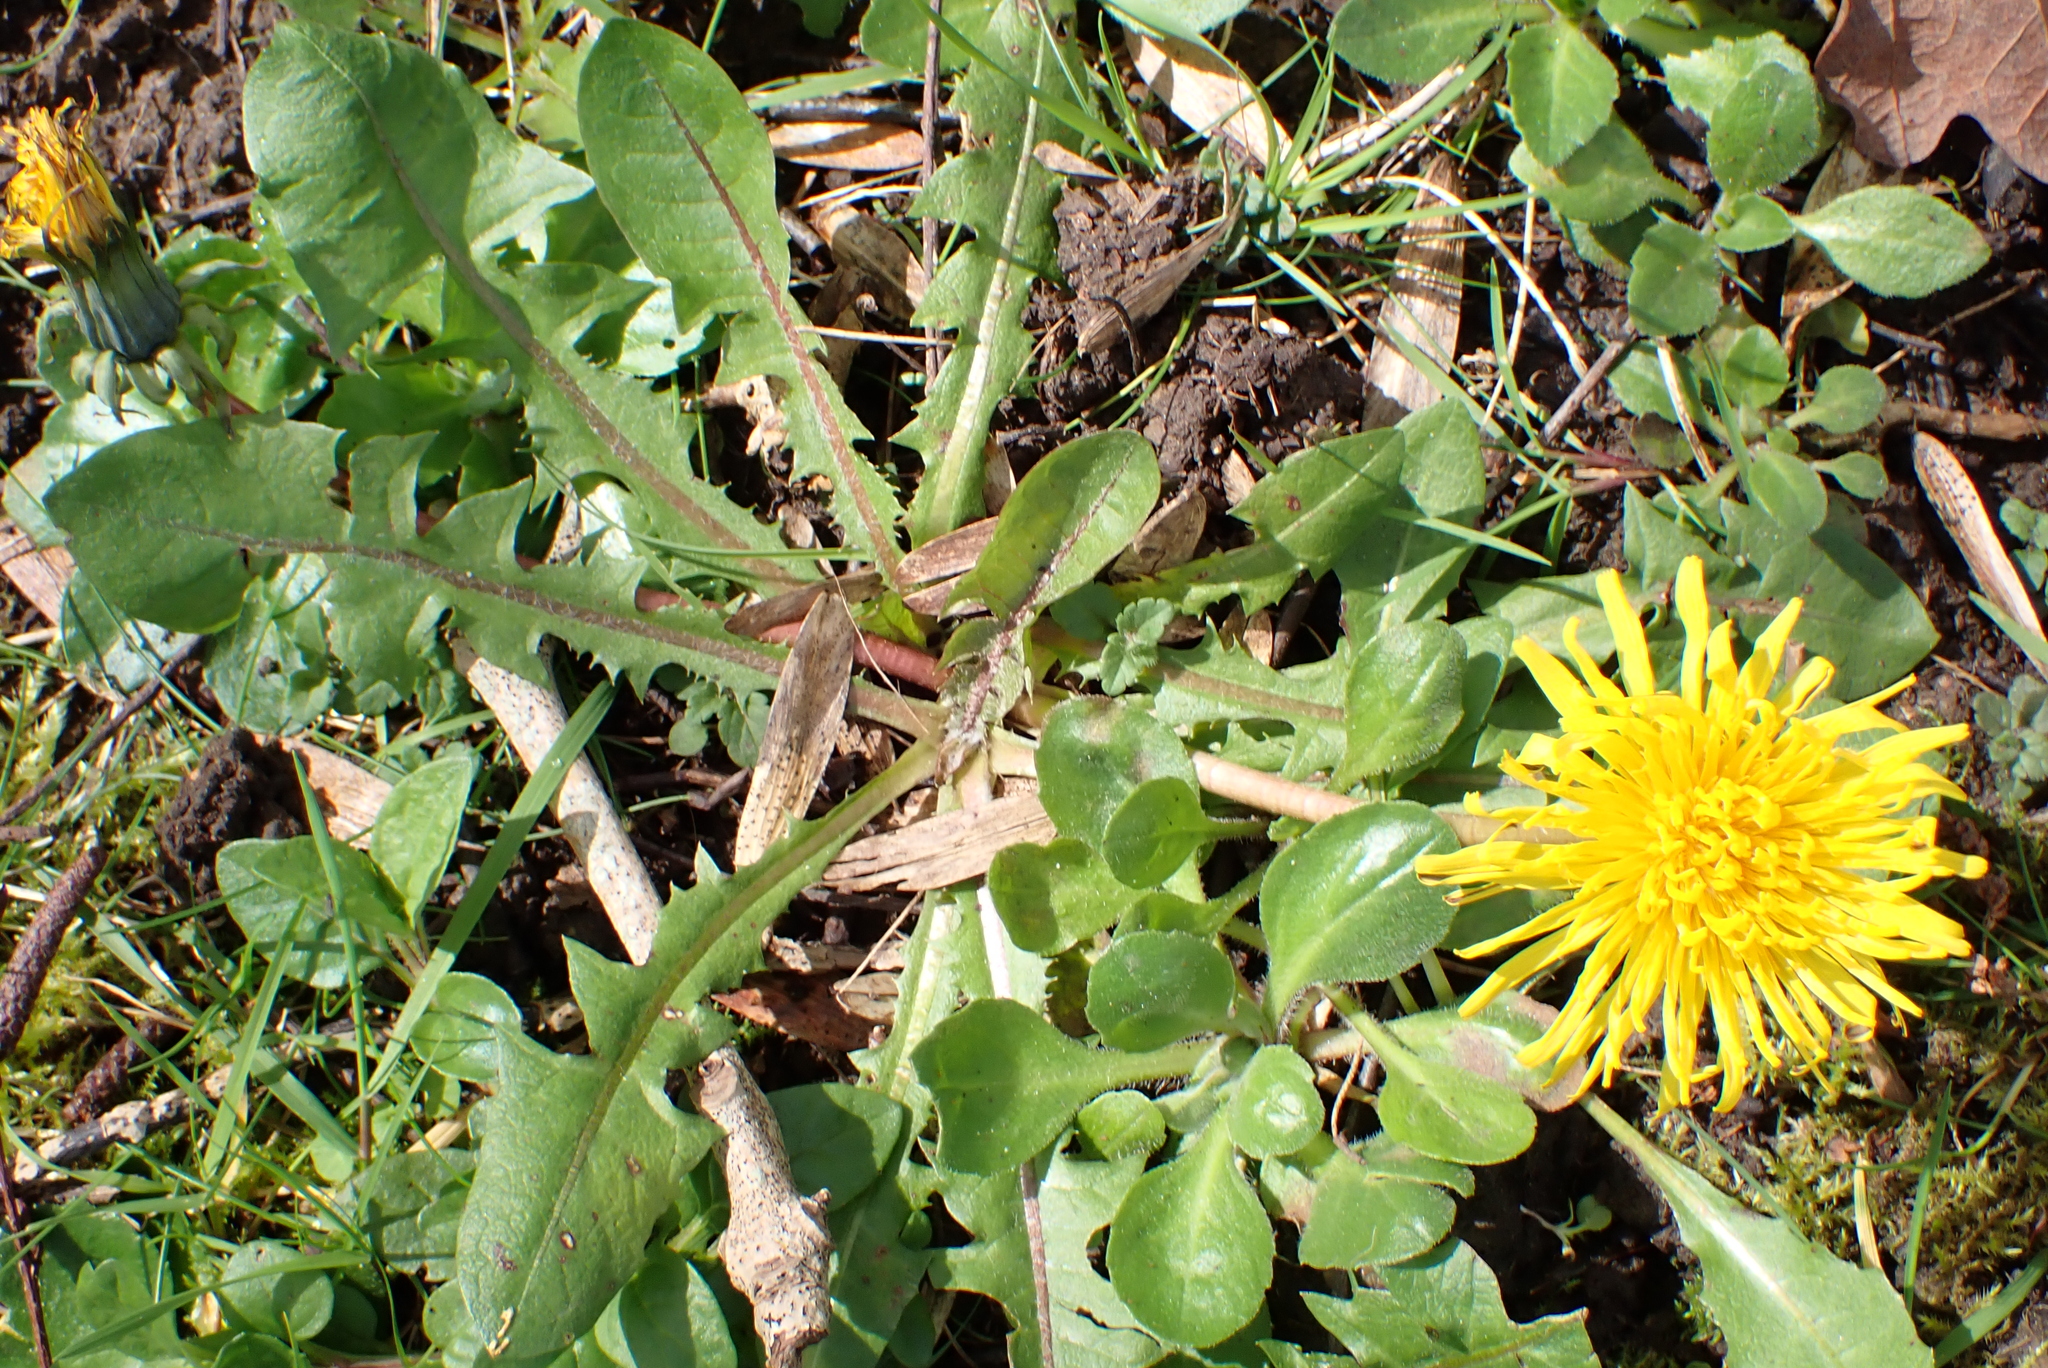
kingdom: Plantae
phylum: Tracheophyta
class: Magnoliopsida
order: Asterales
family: Asteraceae
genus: Taraxacum
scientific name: Taraxacum officinale
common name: Common dandelion
